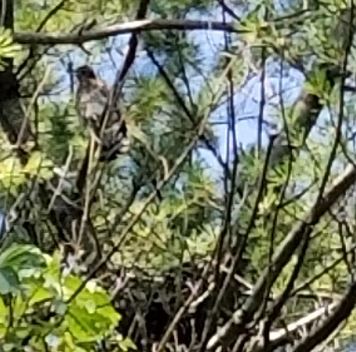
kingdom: Animalia
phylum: Chordata
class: Aves
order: Accipitriformes
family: Accipitridae
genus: Accipiter
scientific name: Accipiter cooperii
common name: Cooper's hawk
